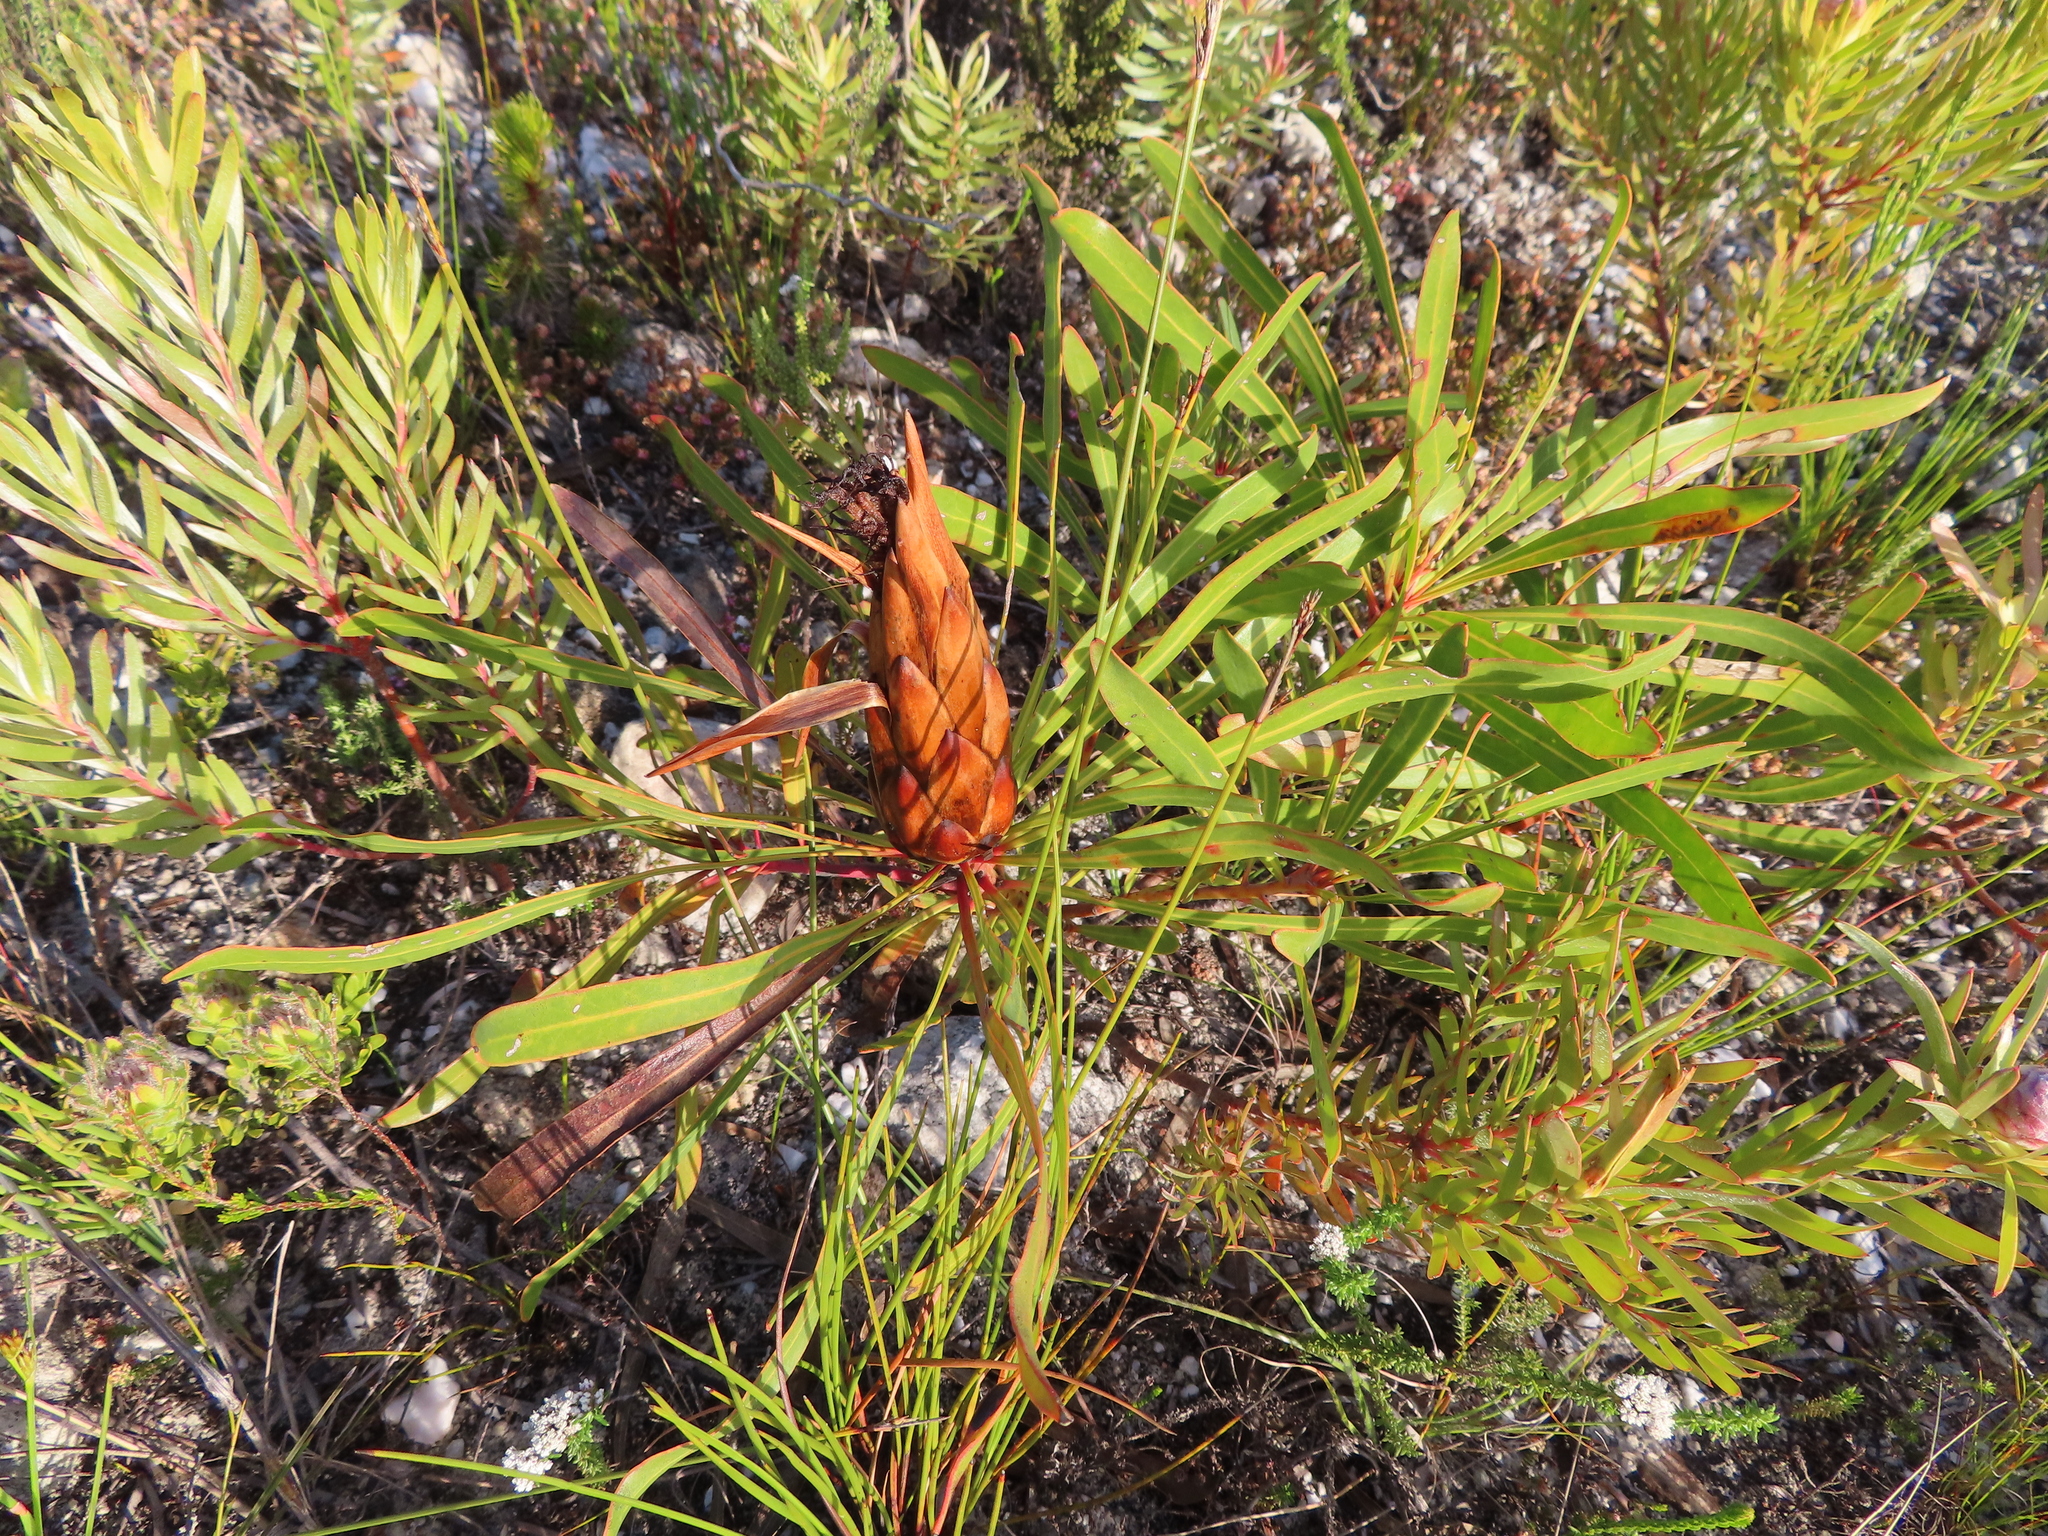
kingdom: Plantae
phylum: Tracheophyta
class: Magnoliopsida
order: Proteales
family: Proteaceae
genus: Protea
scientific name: Protea longifolia
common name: Long-leaf sugarbush
